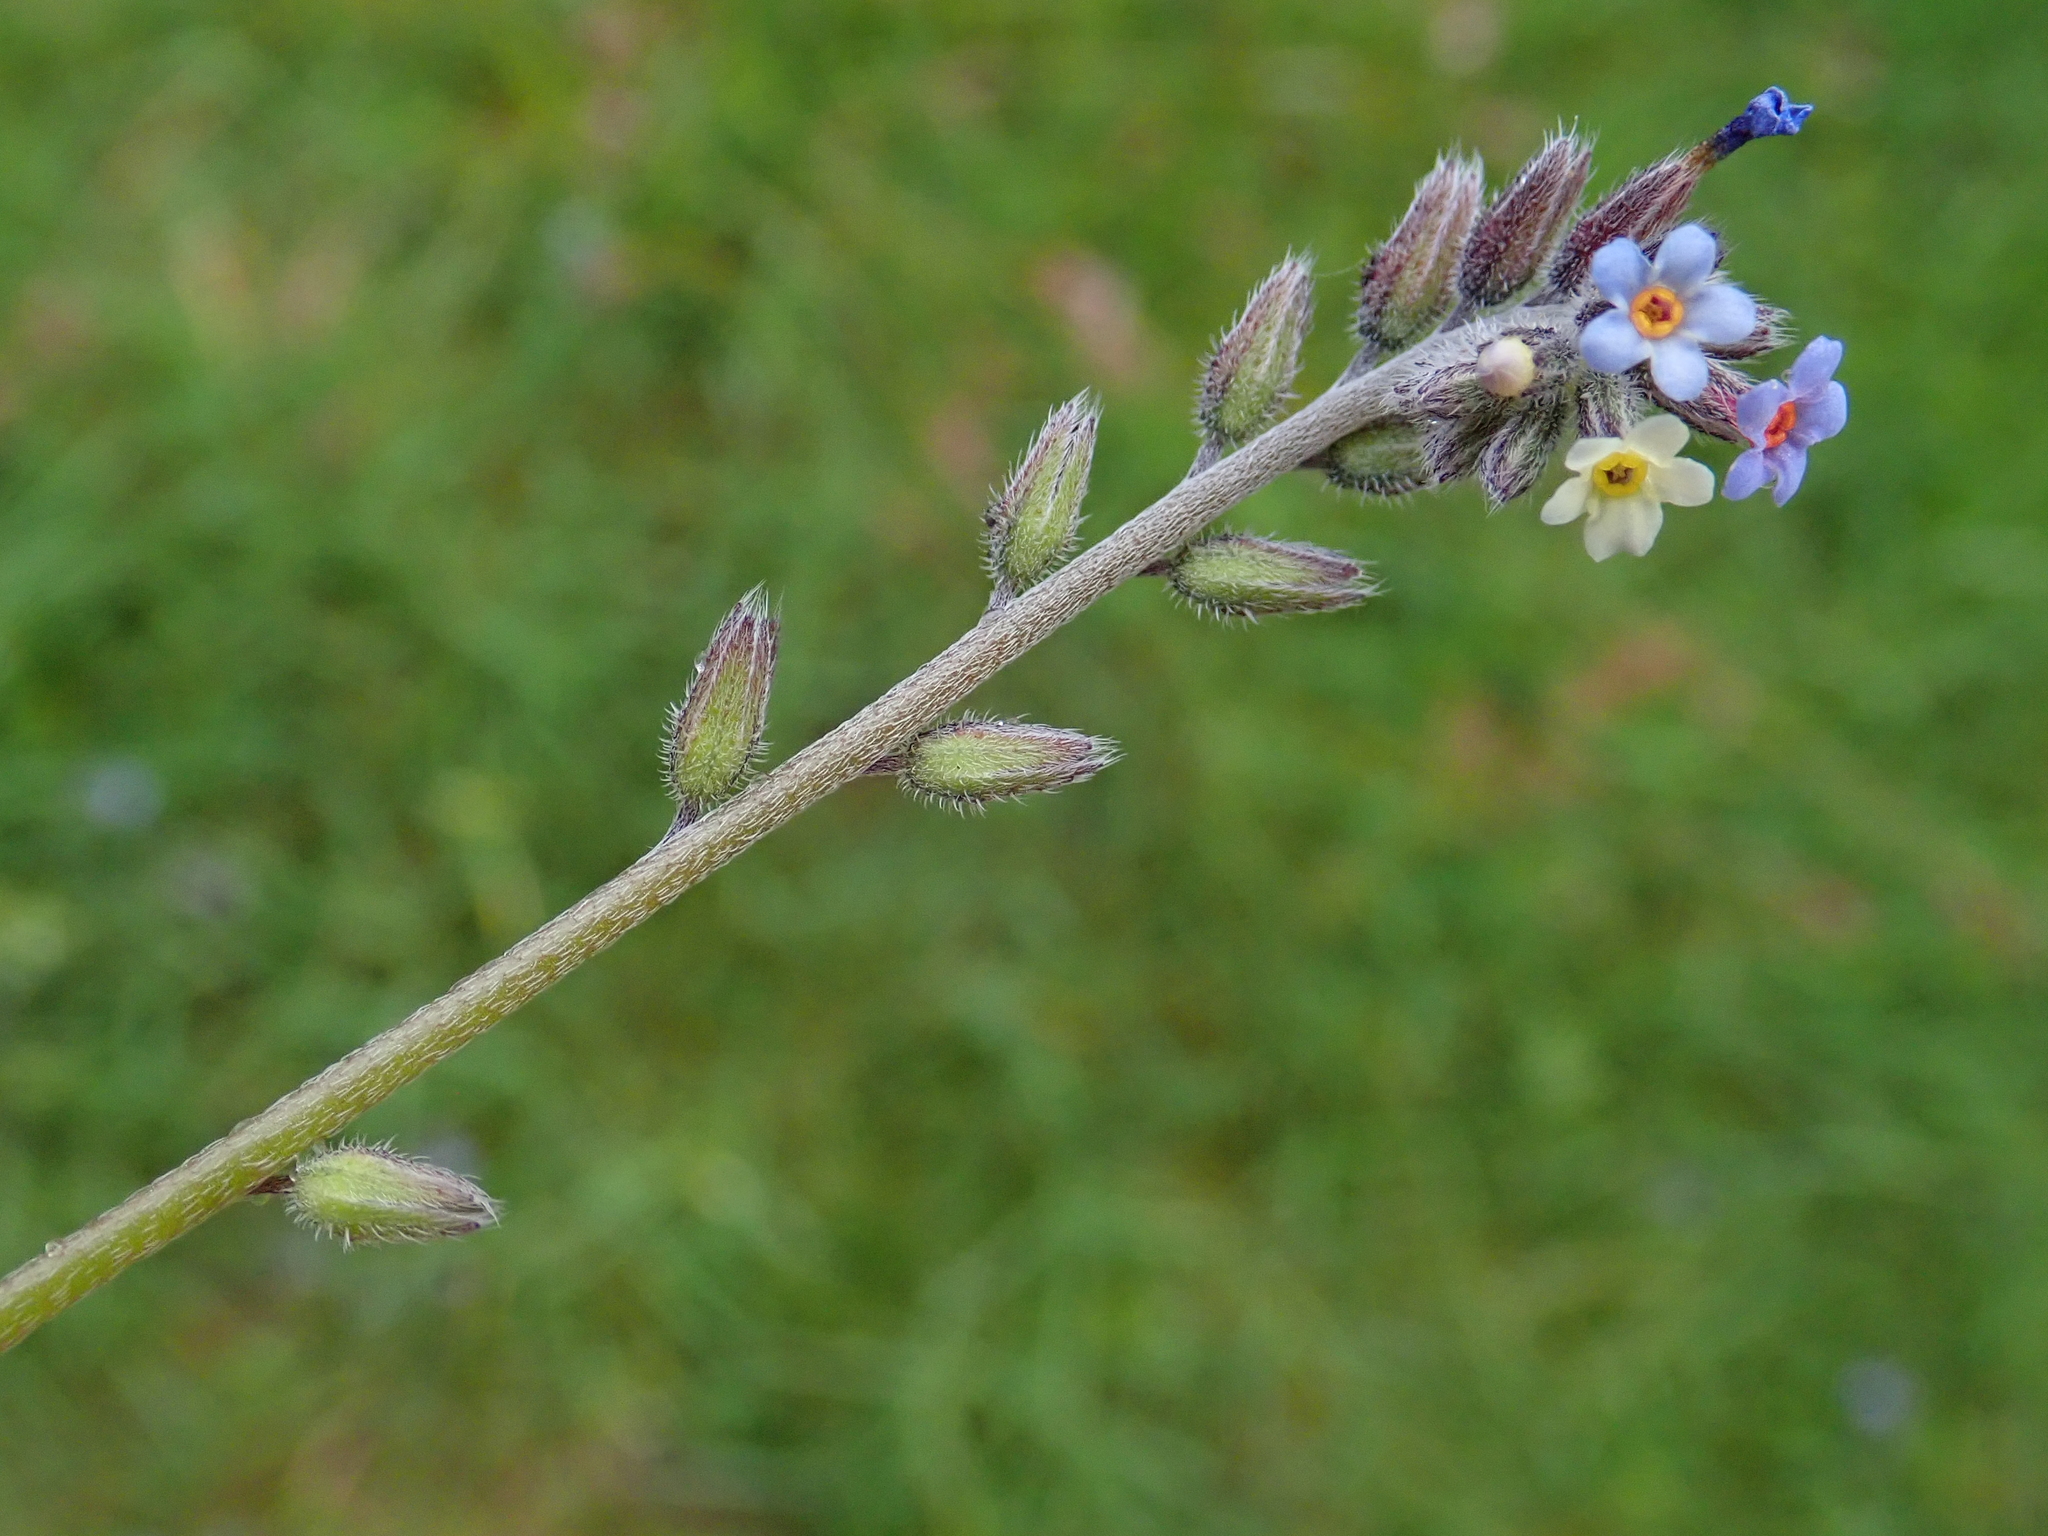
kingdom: Plantae
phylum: Tracheophyta
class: Magnoliopsida
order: Boraginales
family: Boraginaceae
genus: Myosotis
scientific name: Myosotis discolor
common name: Changing forget-me-not
